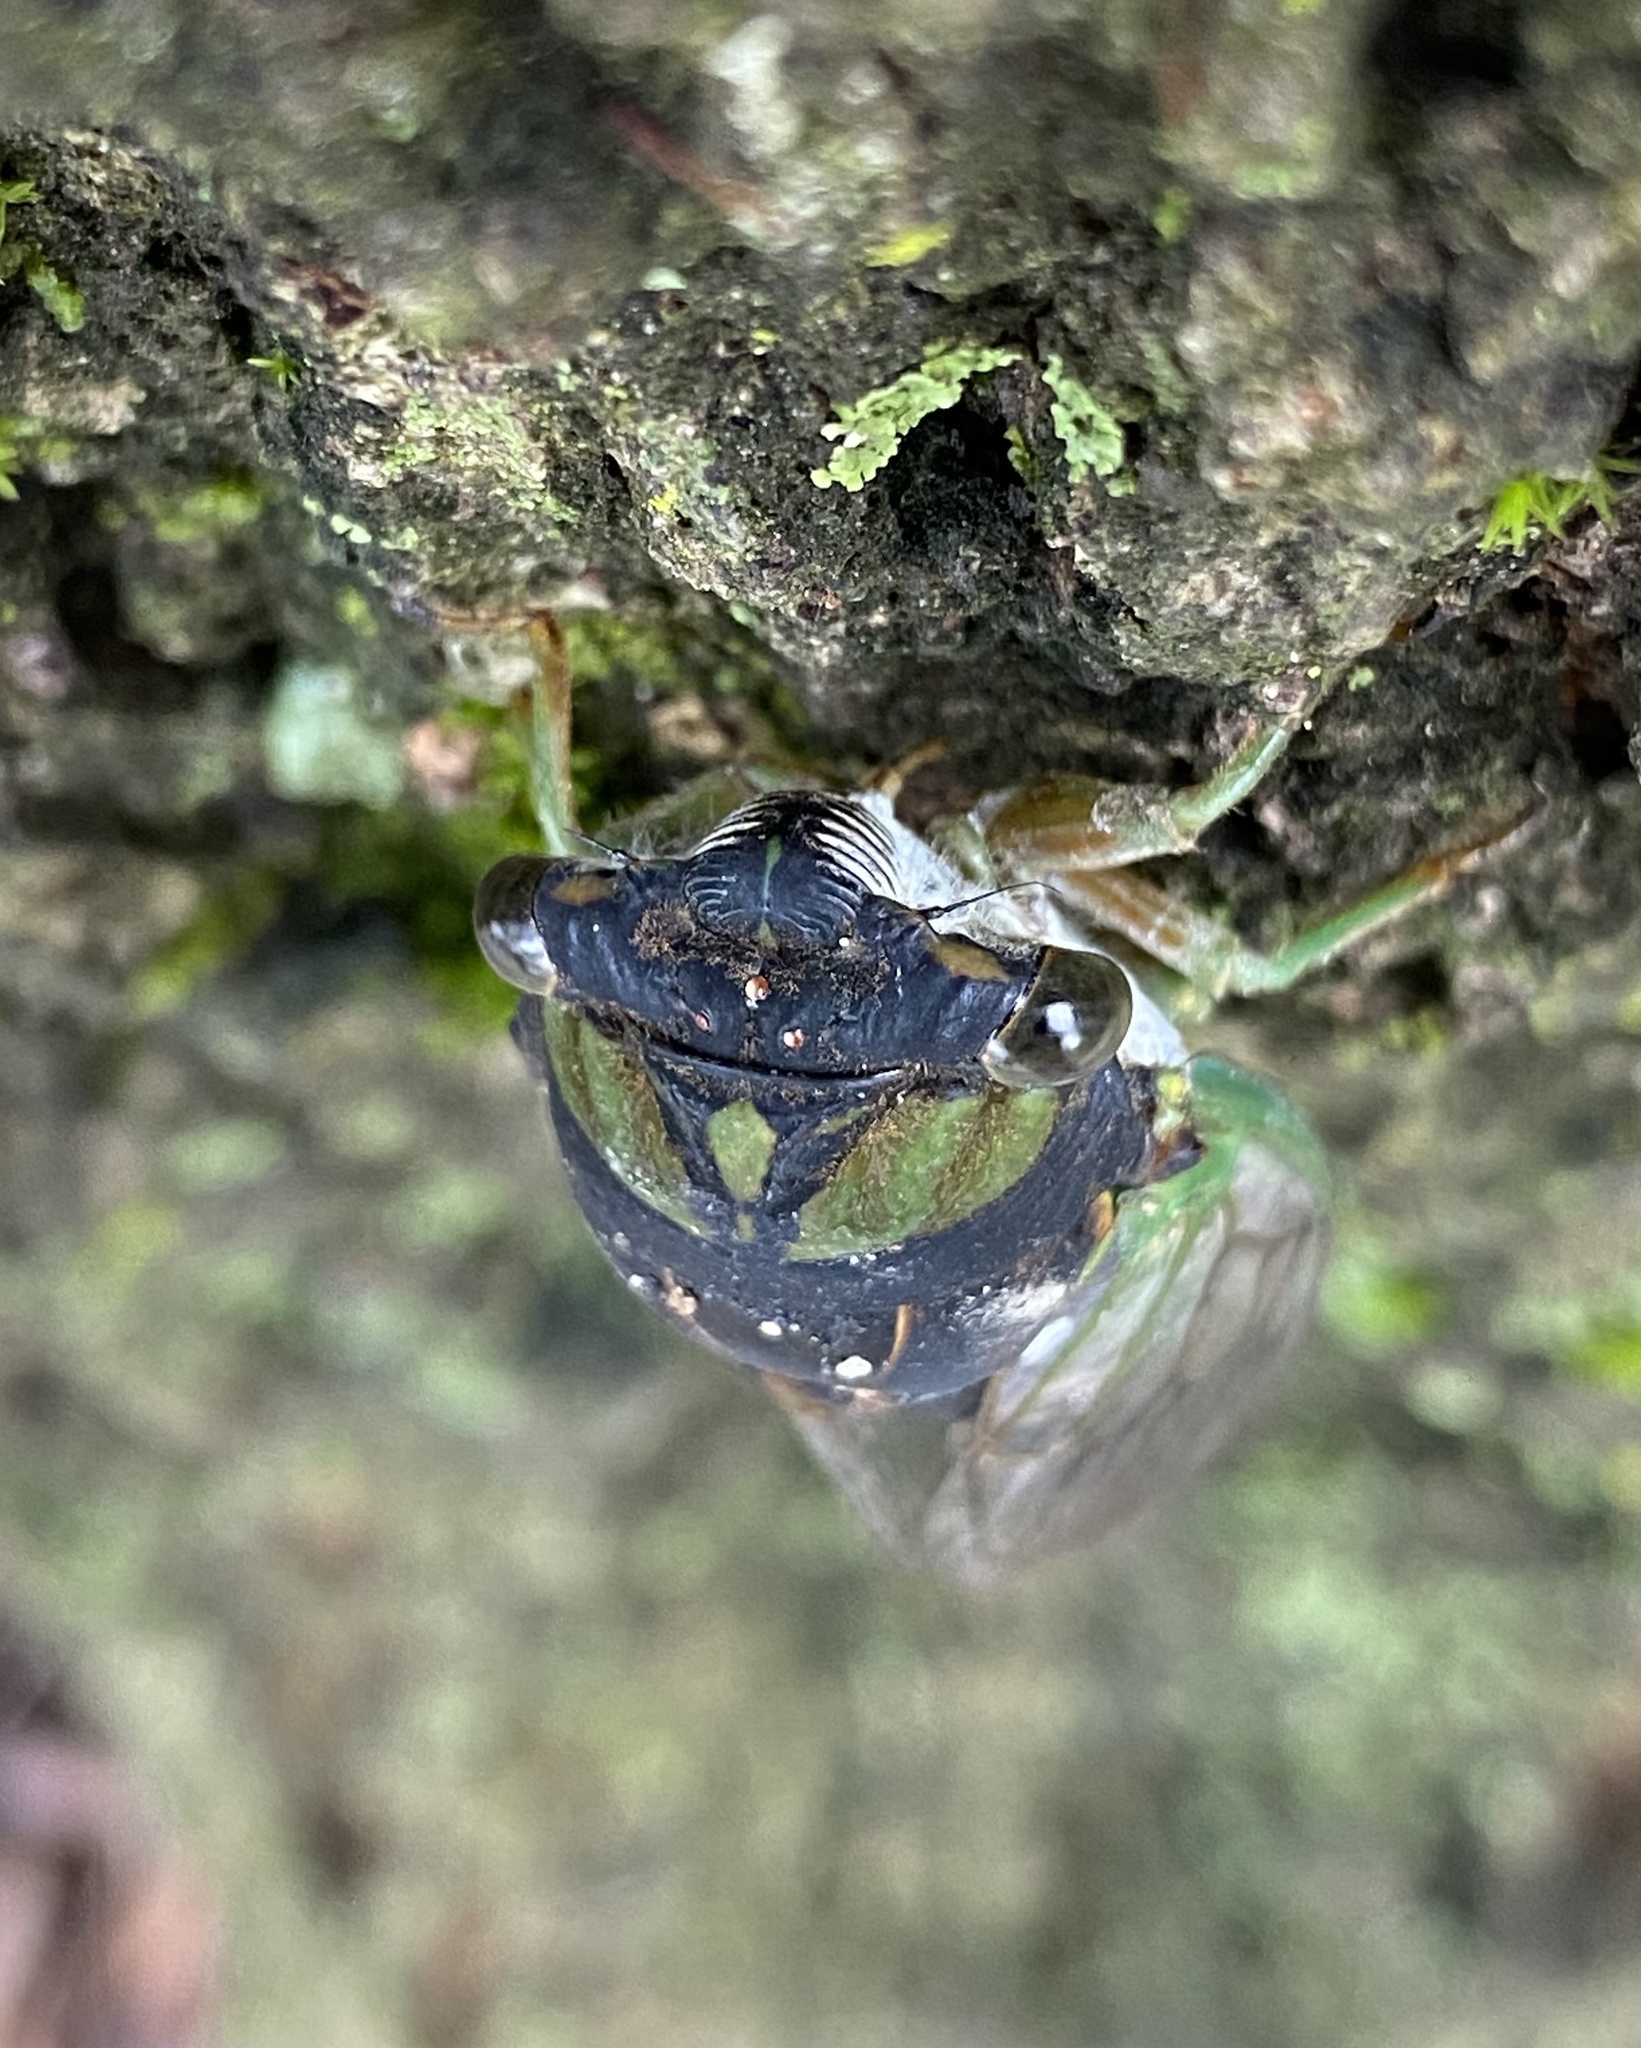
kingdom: Animalia
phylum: Arthropoda
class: Insecta
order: Hemiptera
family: Cicadidae
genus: Neotibicen
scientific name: Neotibicen tibicen
